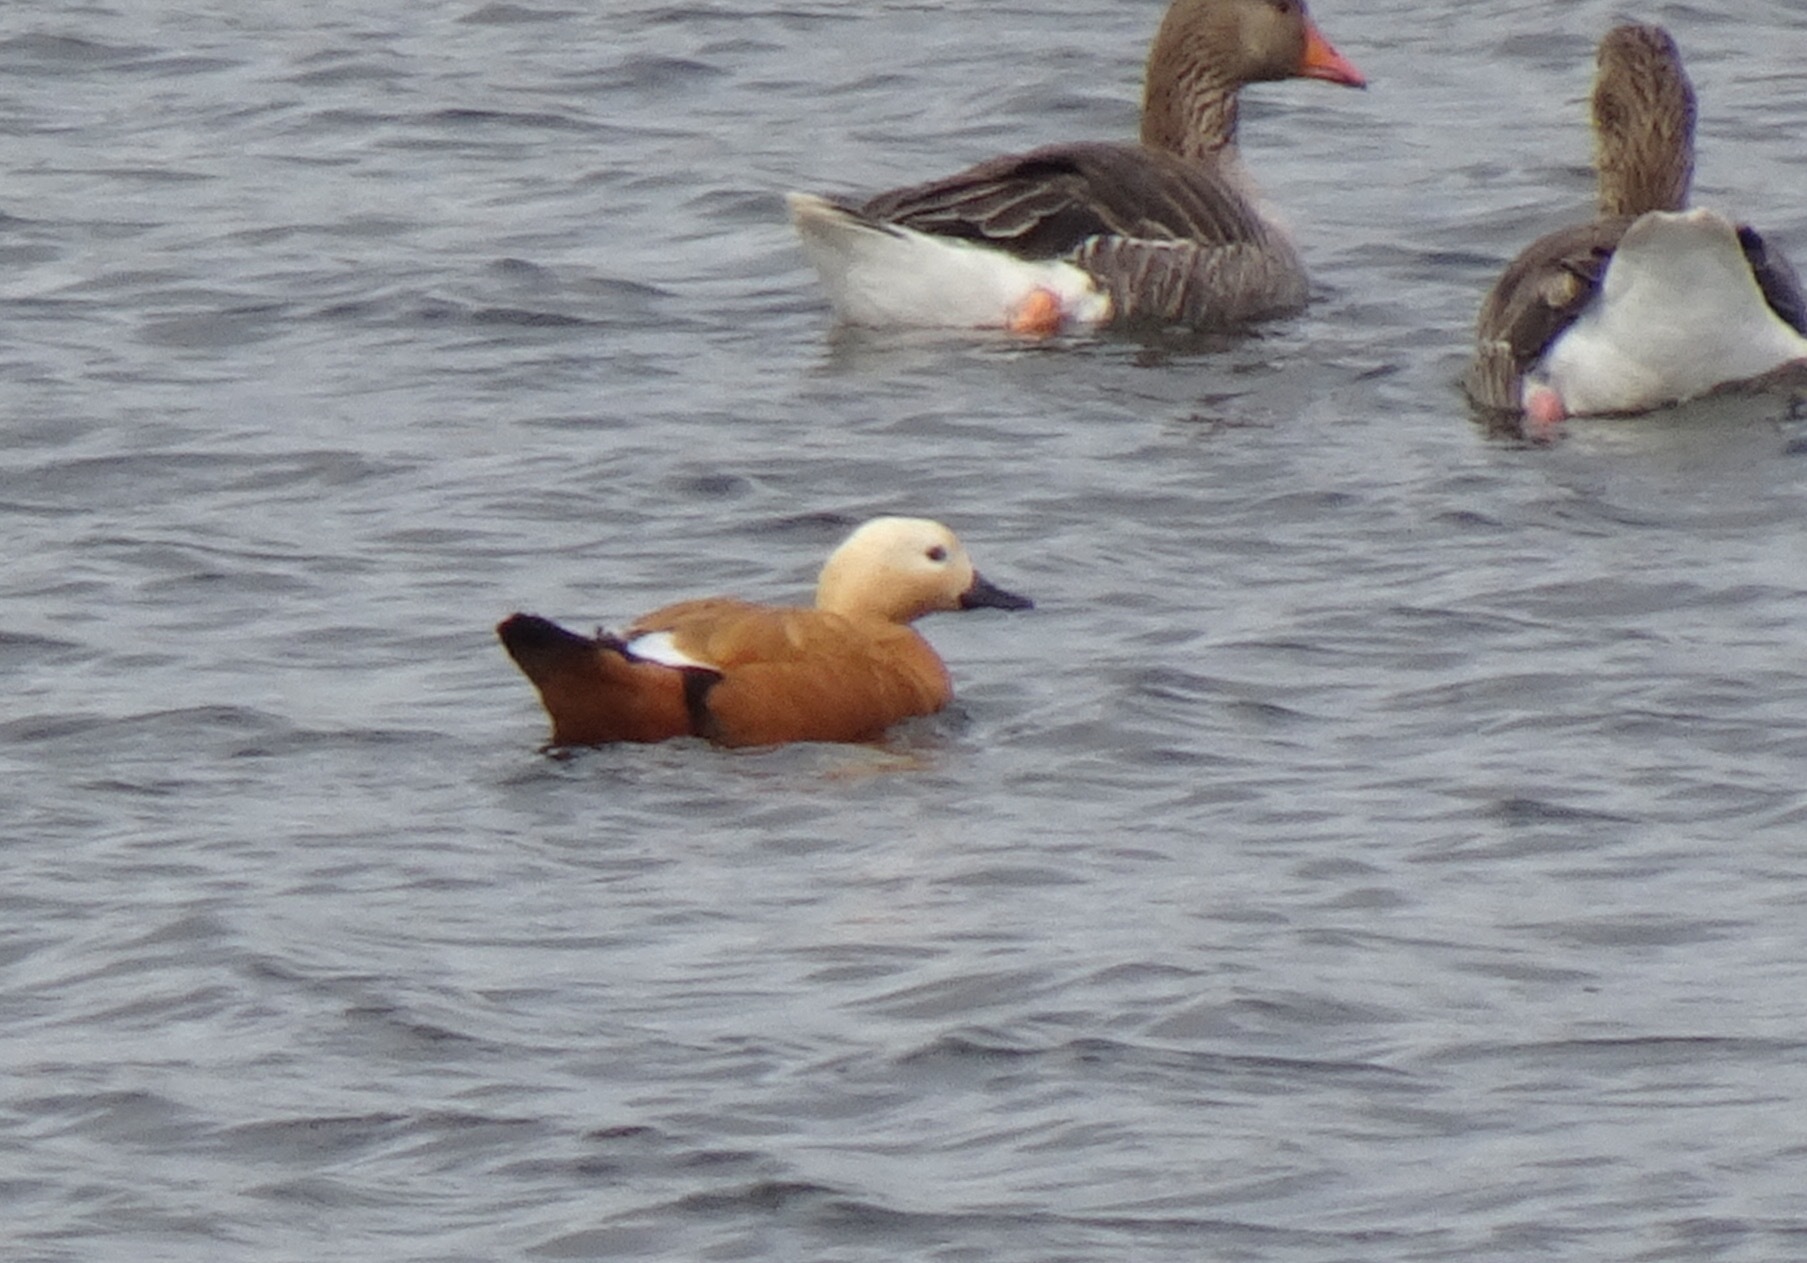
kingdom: Animalia
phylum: Chordata
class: Aves
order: Anseriformes
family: Anatidae
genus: Tadorna
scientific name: Tadorna ferruginea
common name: Ruddy shelduck
